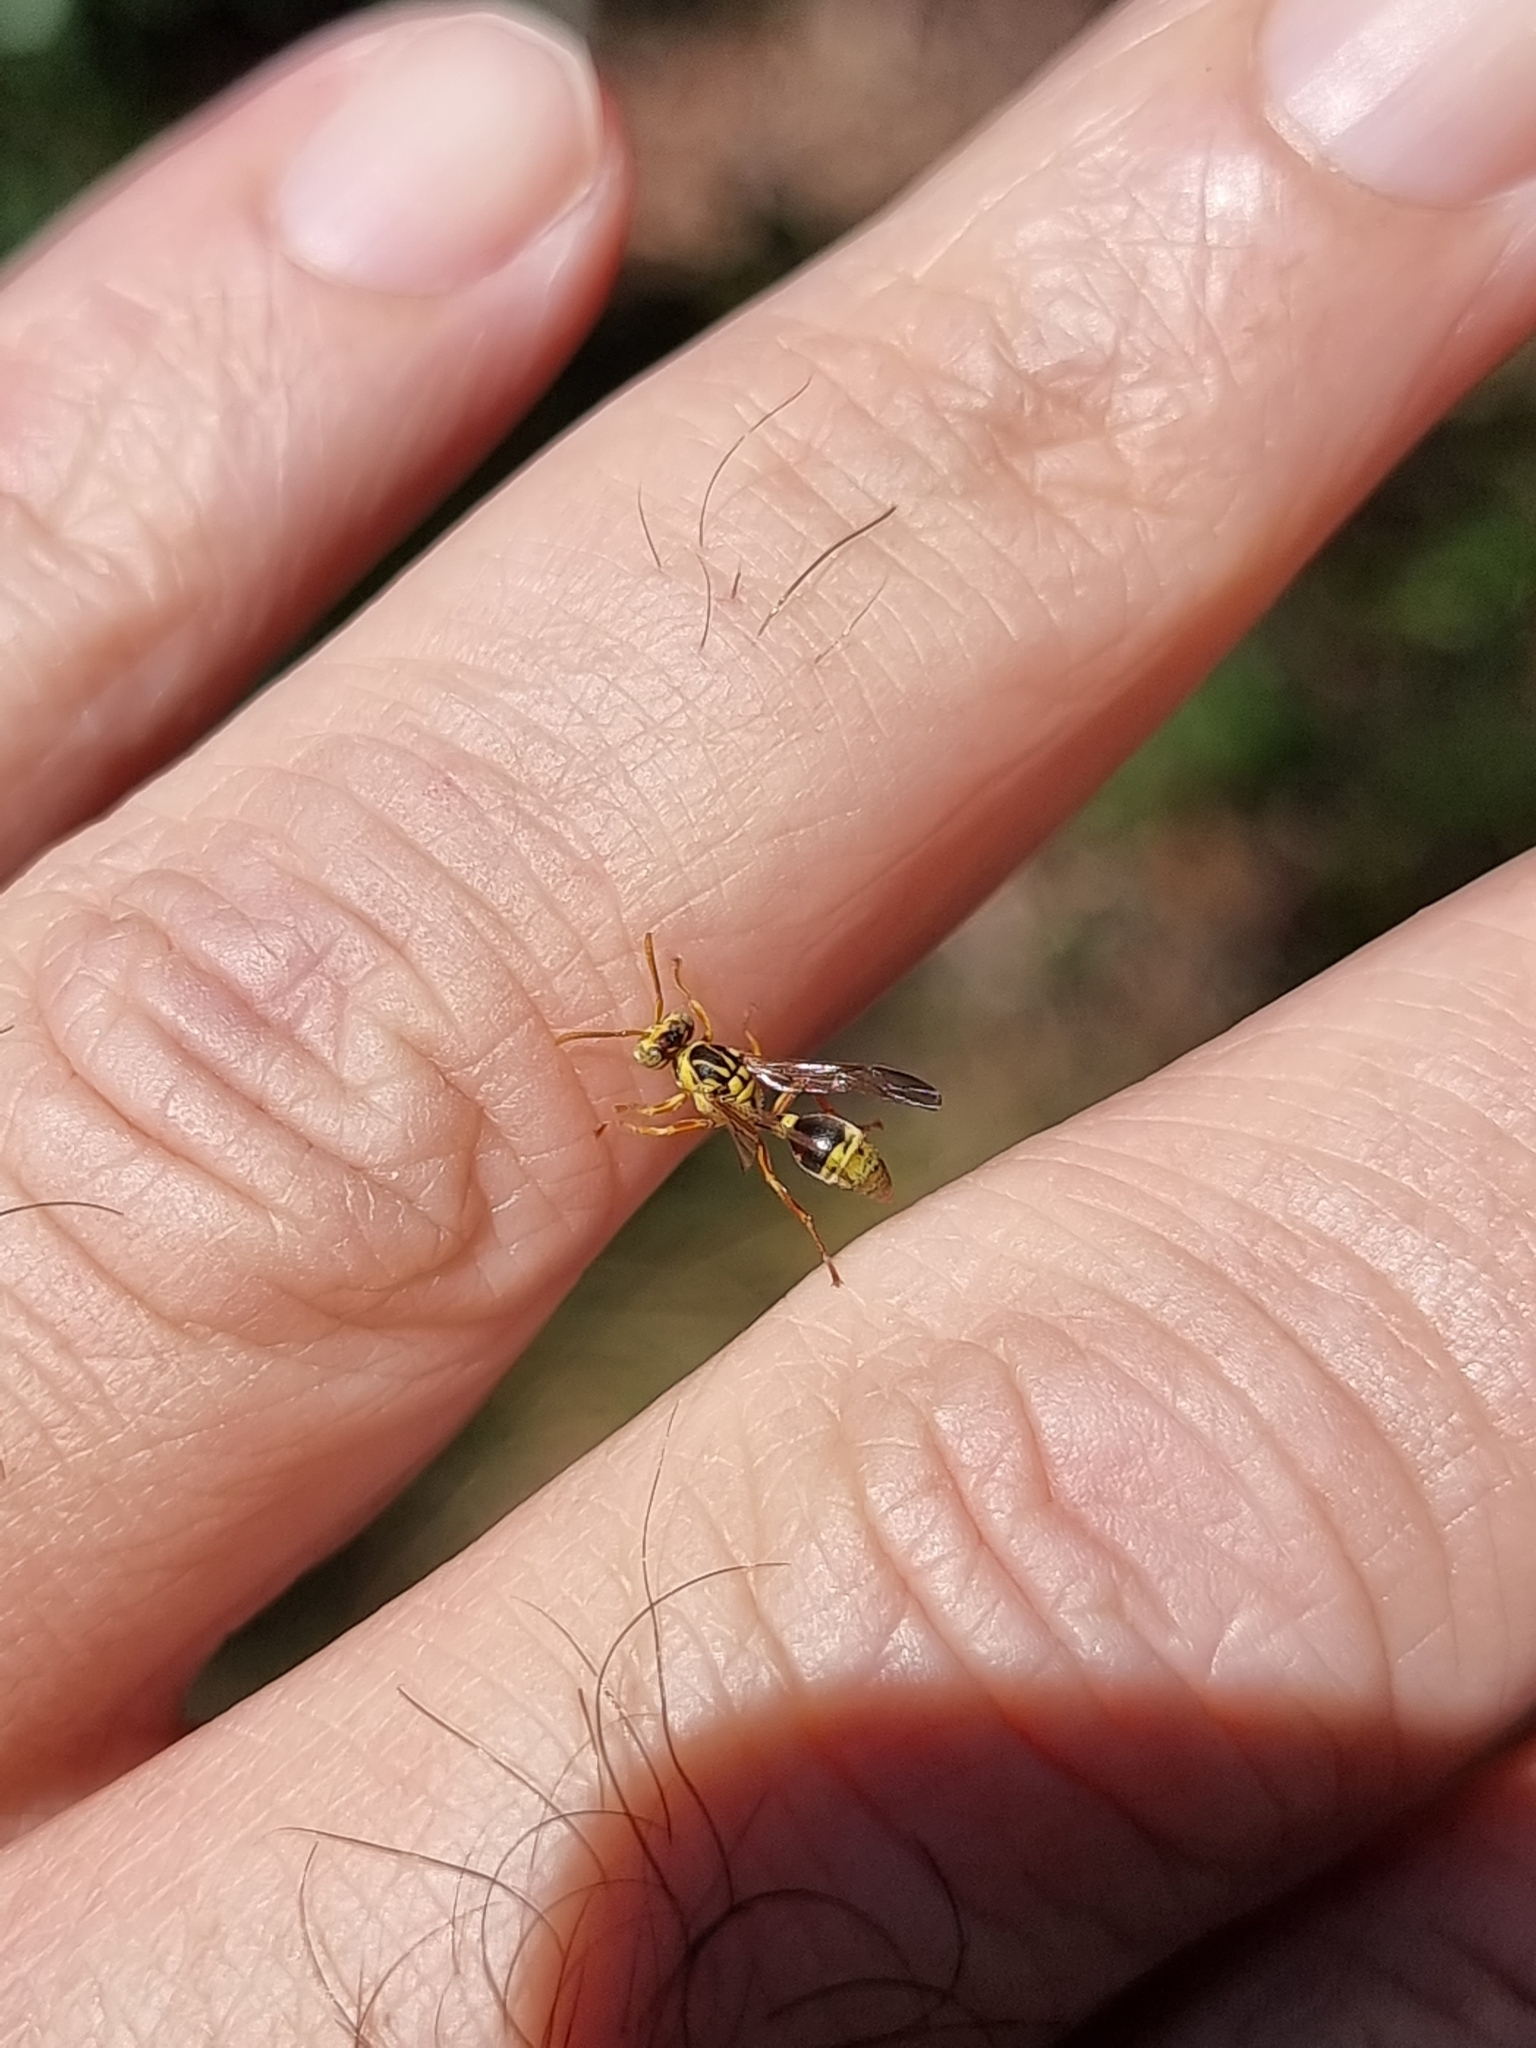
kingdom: Animalia
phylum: Arthropoda
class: Insecta
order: Hymenoptera
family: Vespidae
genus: Ropalidia
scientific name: Ropalidia romandi
